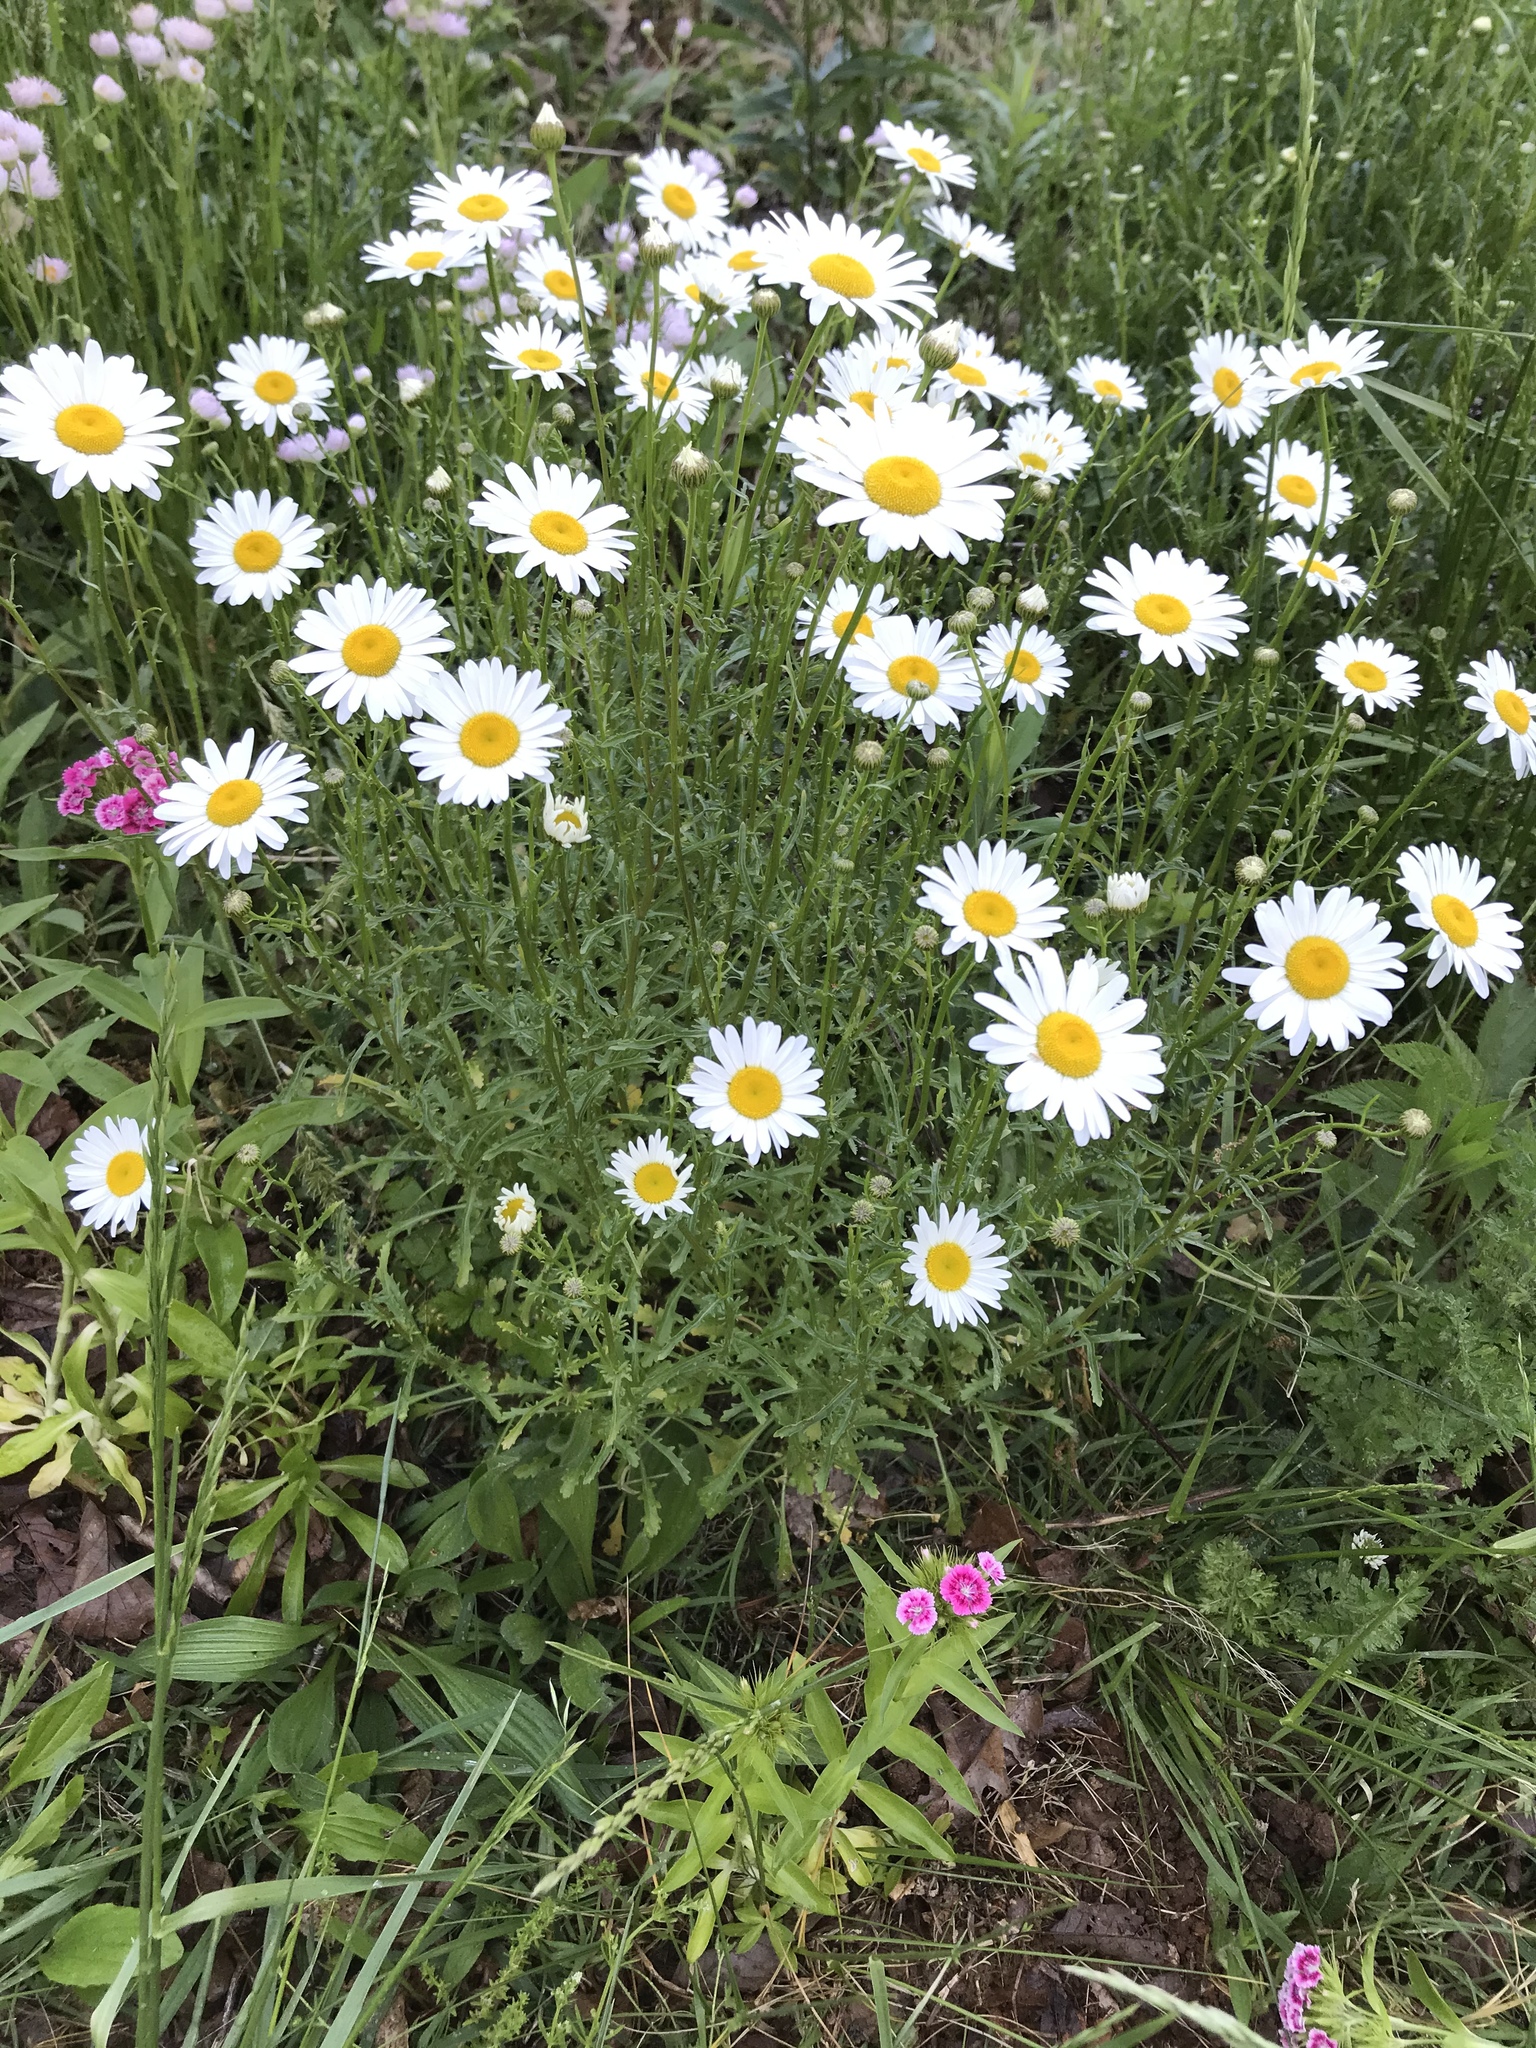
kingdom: Plantae
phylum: Tracheophyta
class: Magnoliopsida
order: Asterales
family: Asteraceae
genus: Leucanthemum
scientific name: Leucanthemum vulgare
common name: Oxeye daisy
